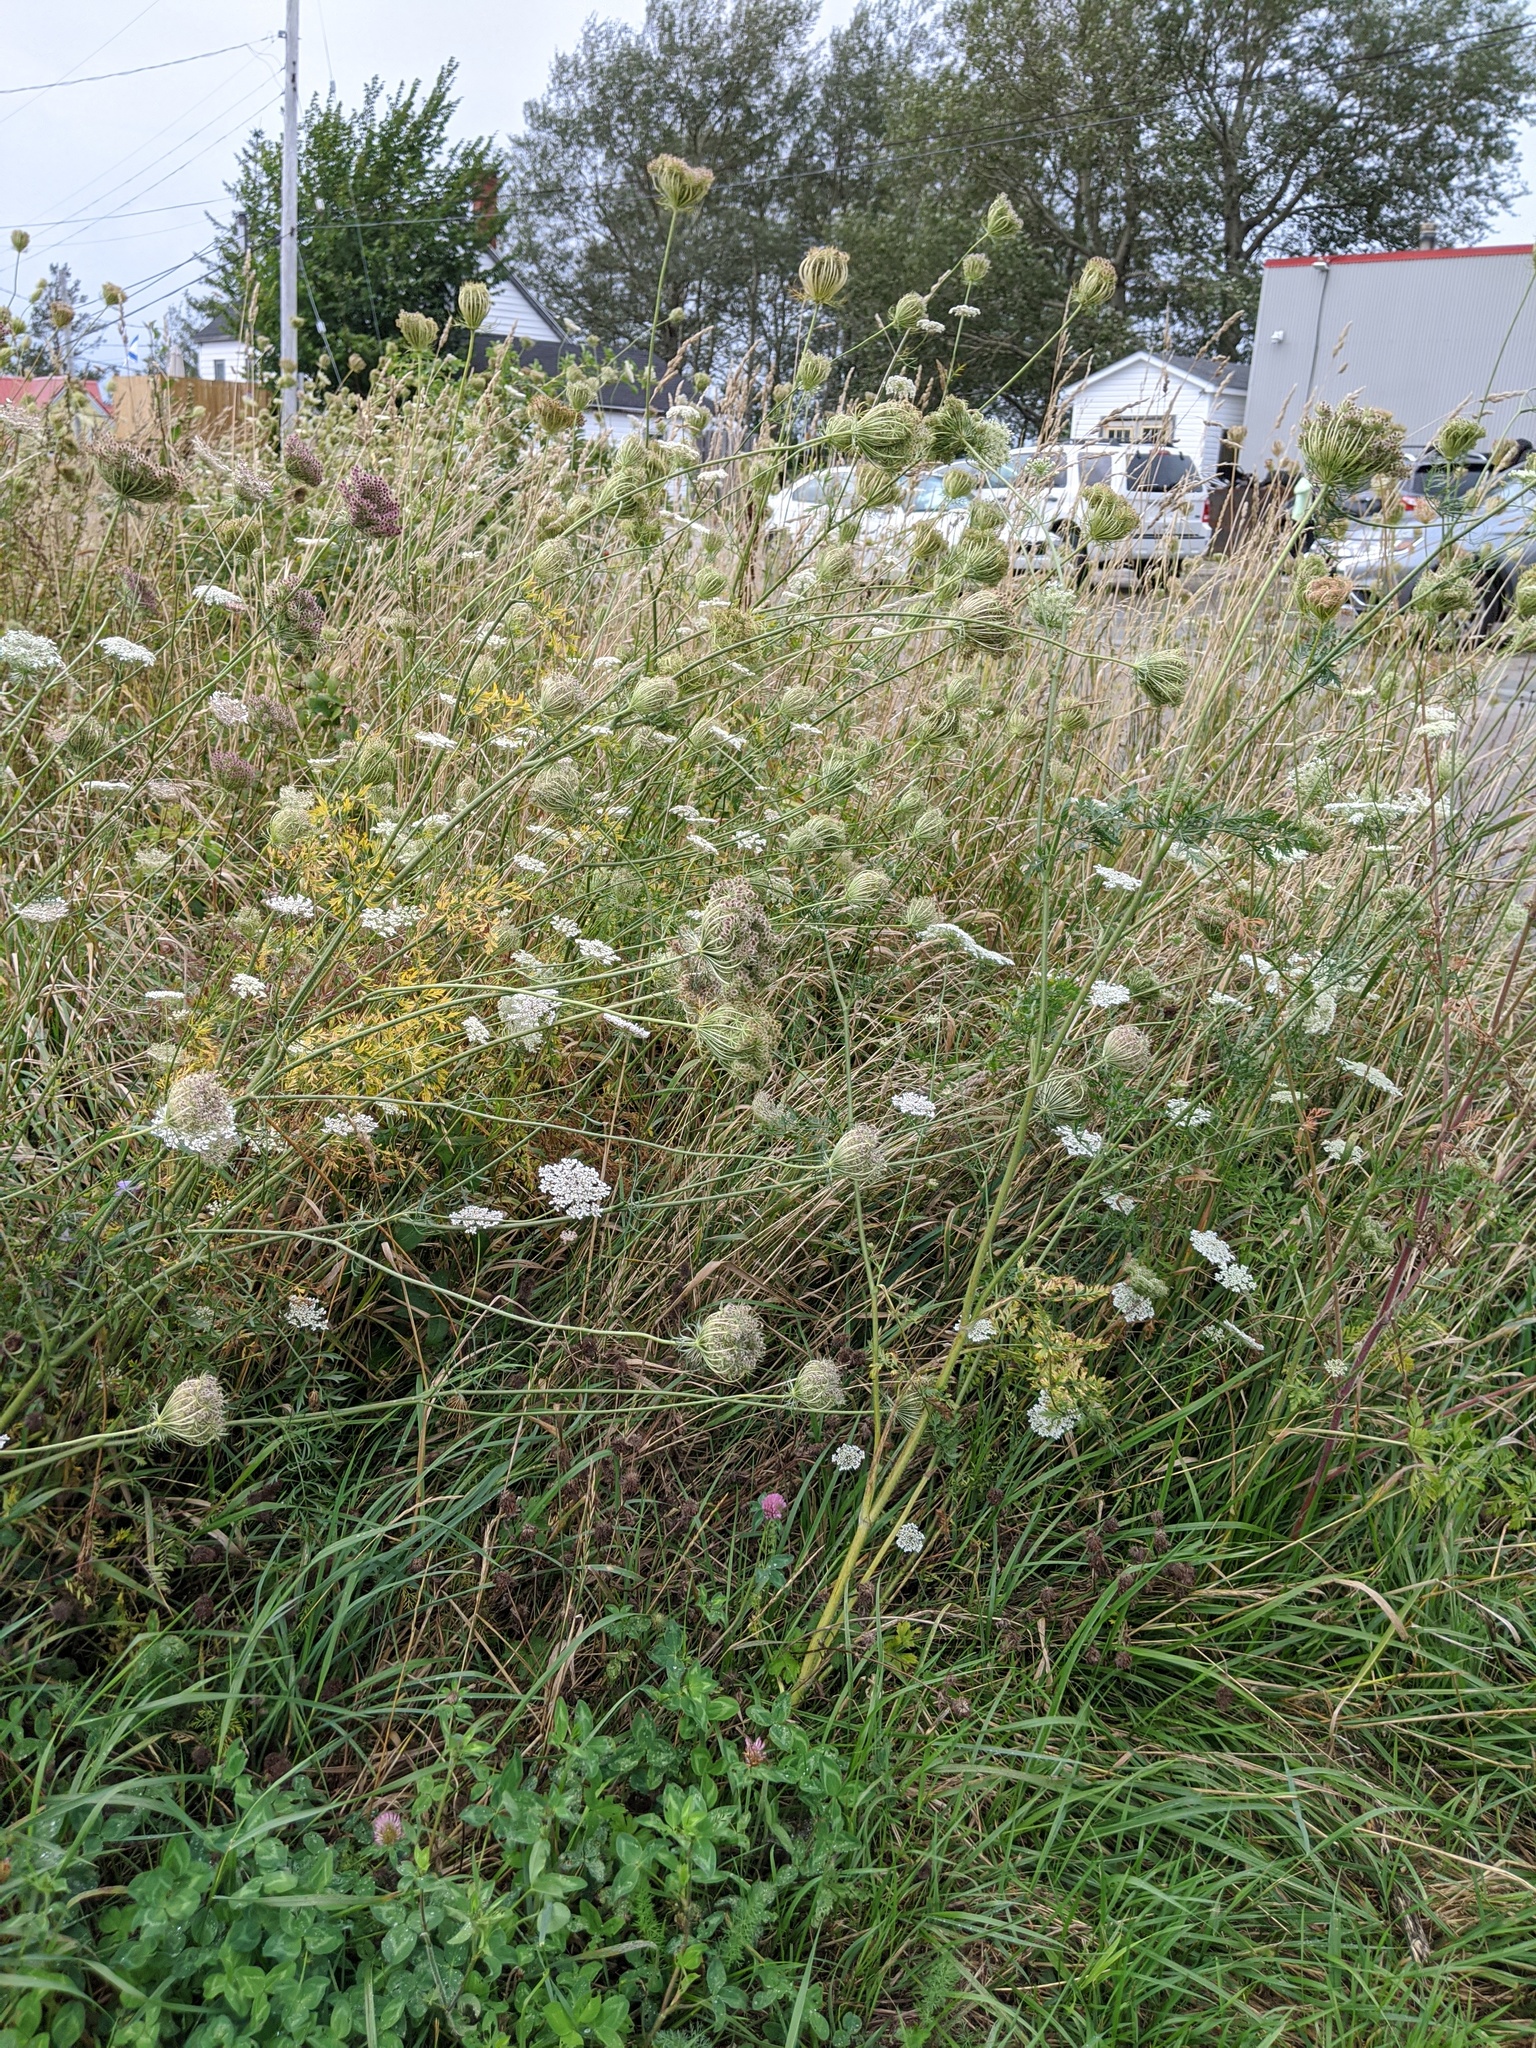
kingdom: Plantae
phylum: Tracheophyta
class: Magnoliopsida
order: Apiales
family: Apiaceae
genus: Daucus
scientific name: Daucus carota
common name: Wild carrot
